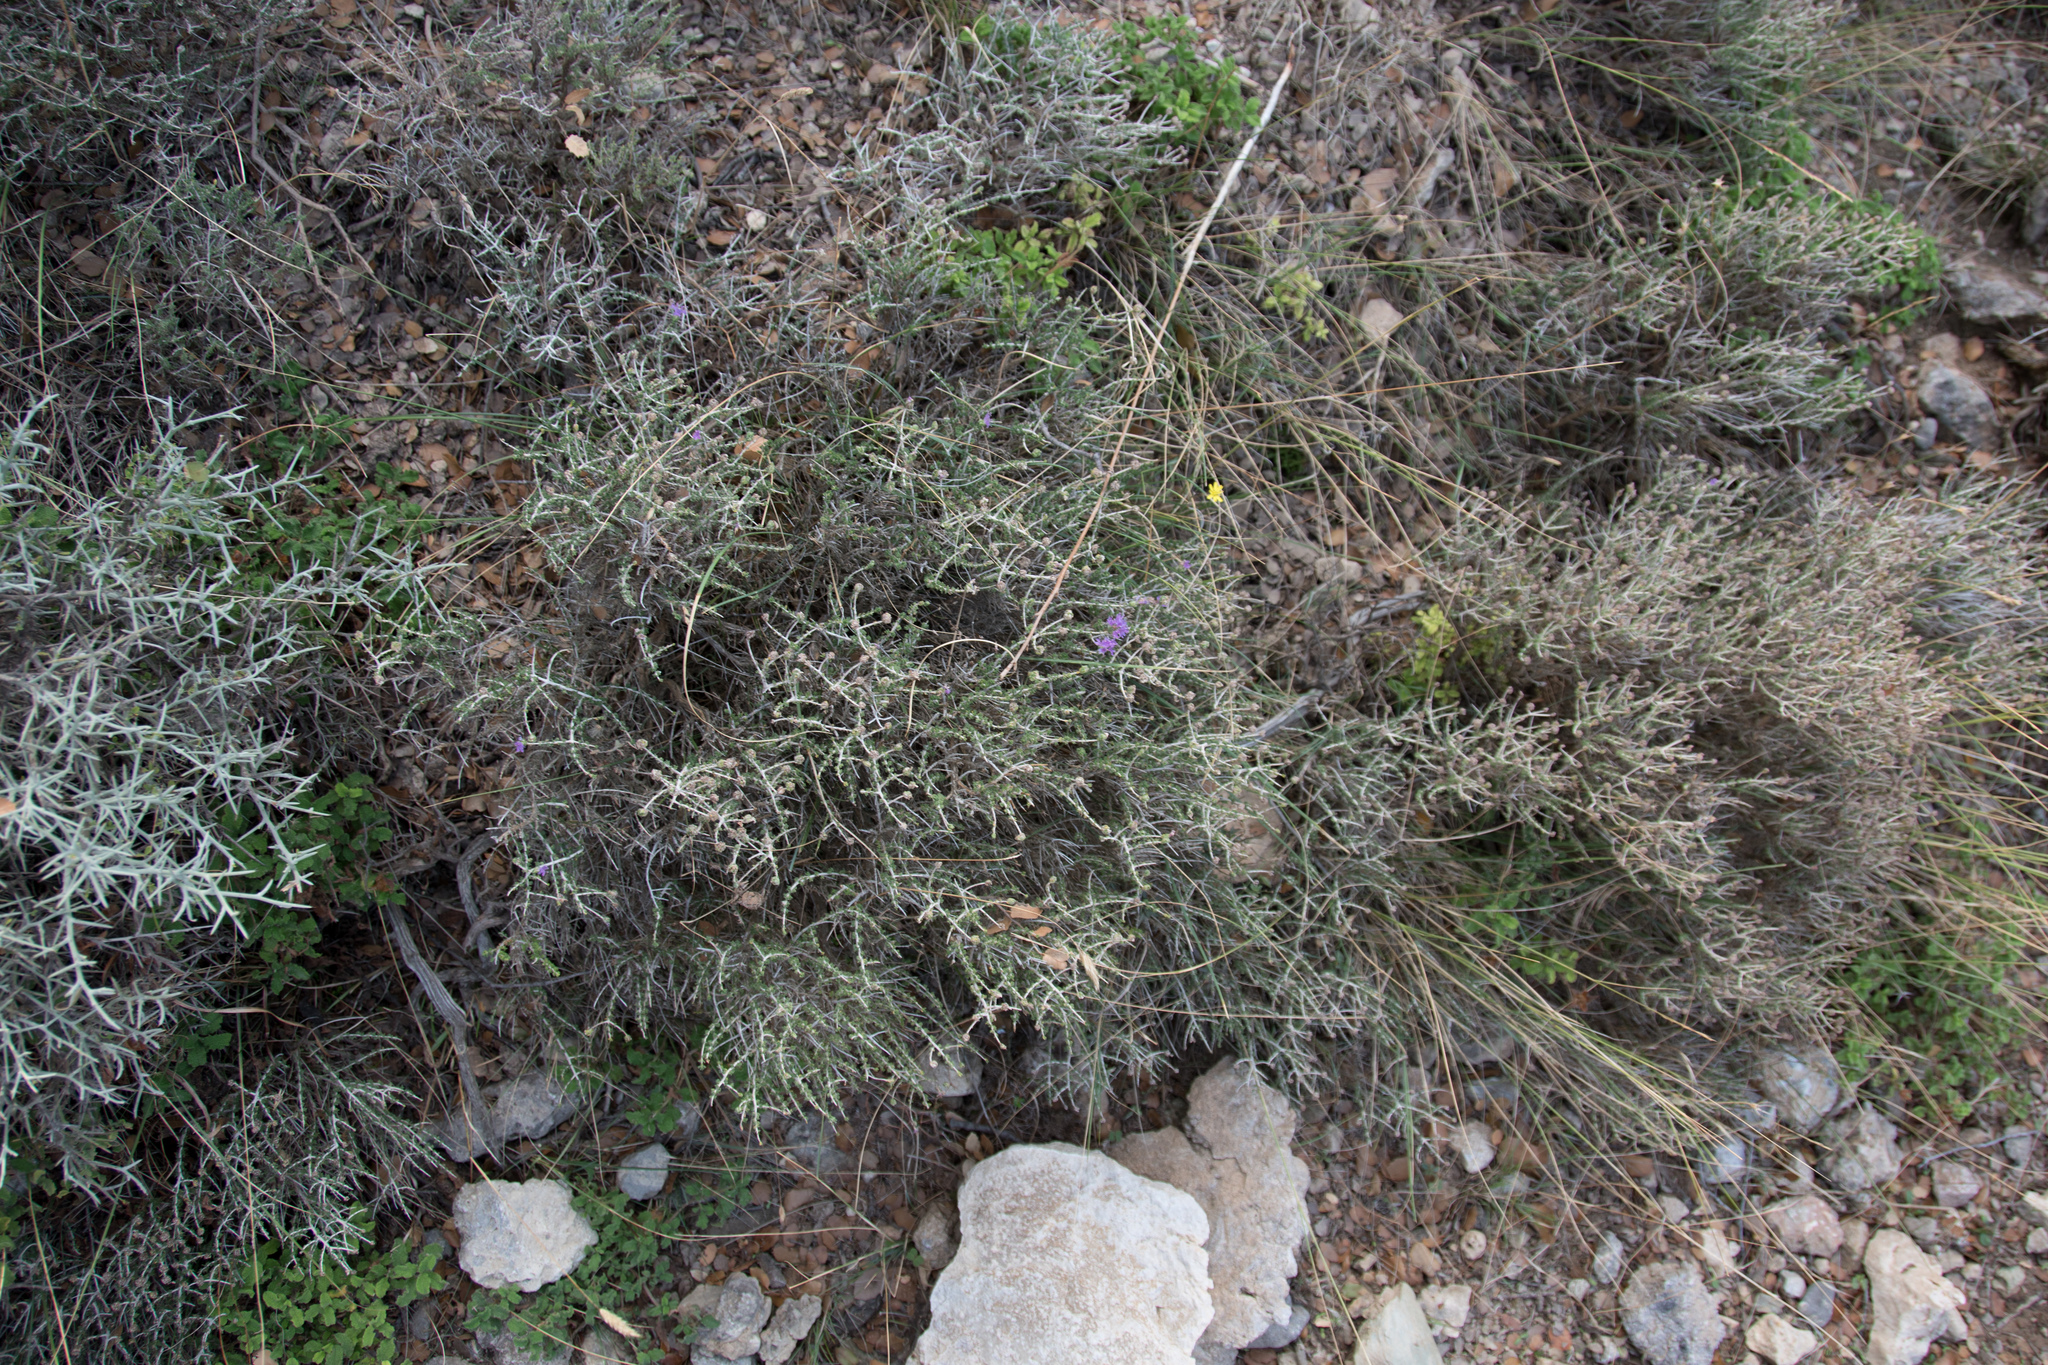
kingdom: Plantae
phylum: Tracheophyta
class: Magnoliopsida
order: Lamiales
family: Lamiaceae
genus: Thymbra
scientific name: Thymbra capitata
